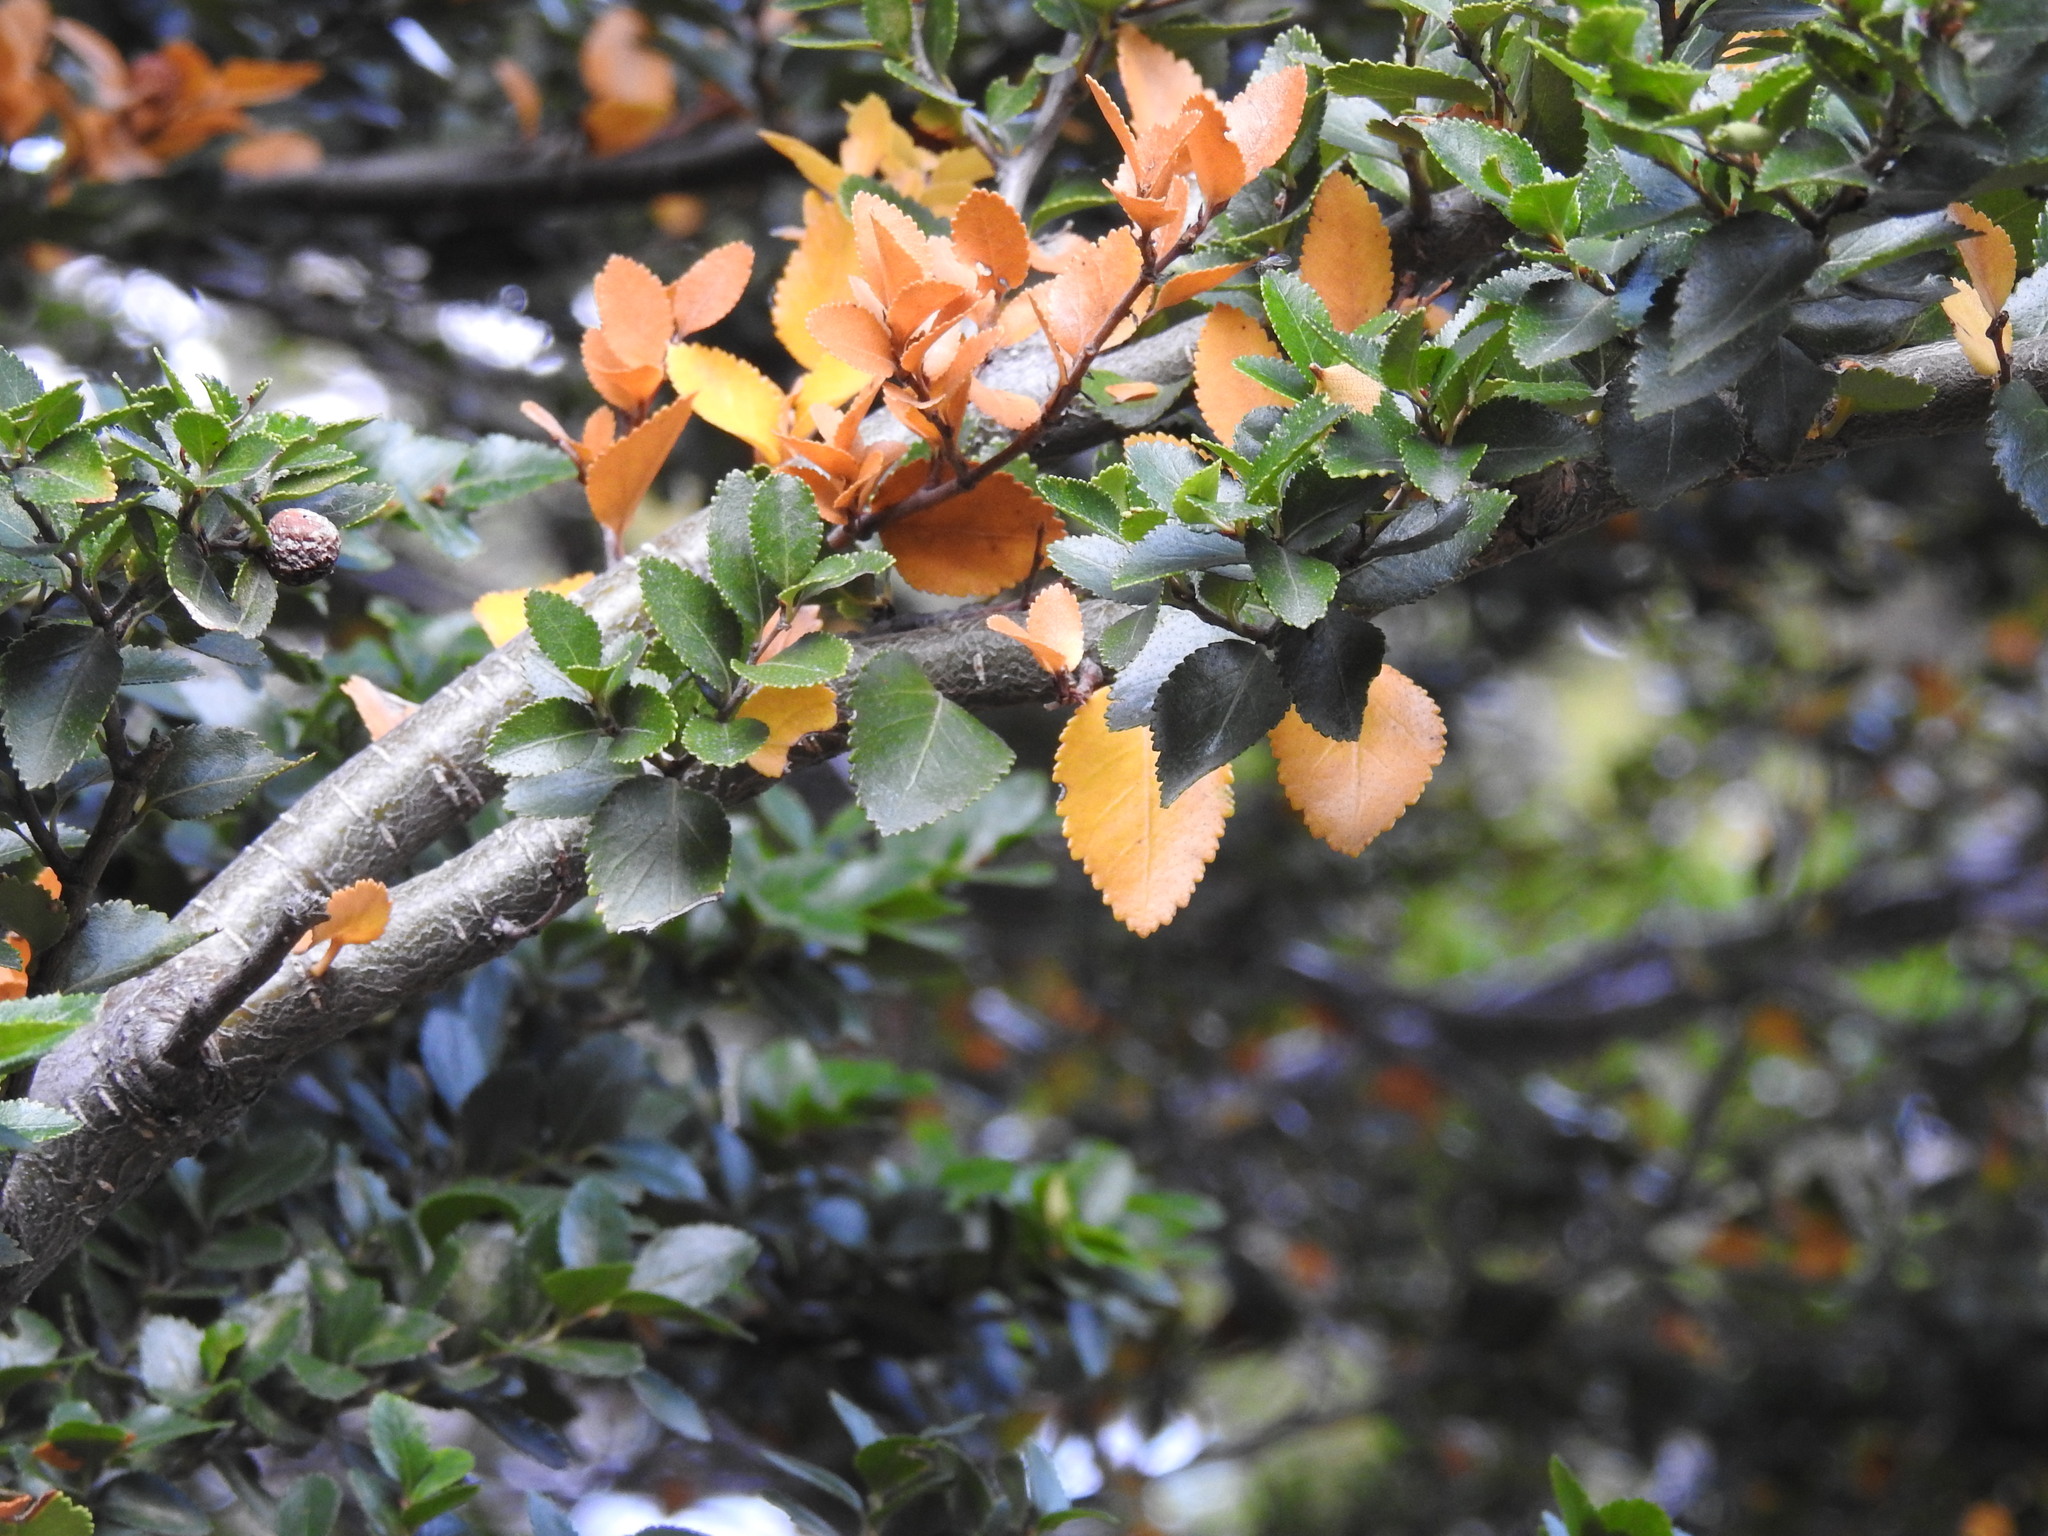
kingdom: Plantae
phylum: Tracheophyta
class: Magnoliopsida
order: Fagales
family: Nothofagaceae
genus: Nothofagus
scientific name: Nothofagus betuloides
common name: Magellan's beech
